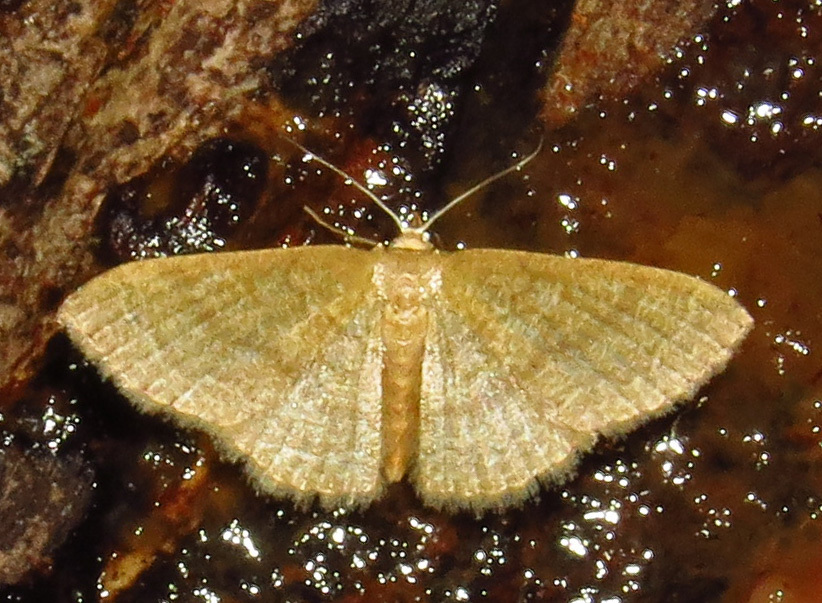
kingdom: Animalia
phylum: Arthropoda
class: Insecta
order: Lepidoptera
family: Geometridae
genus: Pleuroprucha
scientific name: Pleuroprucha insulsaria
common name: Common tan wave
